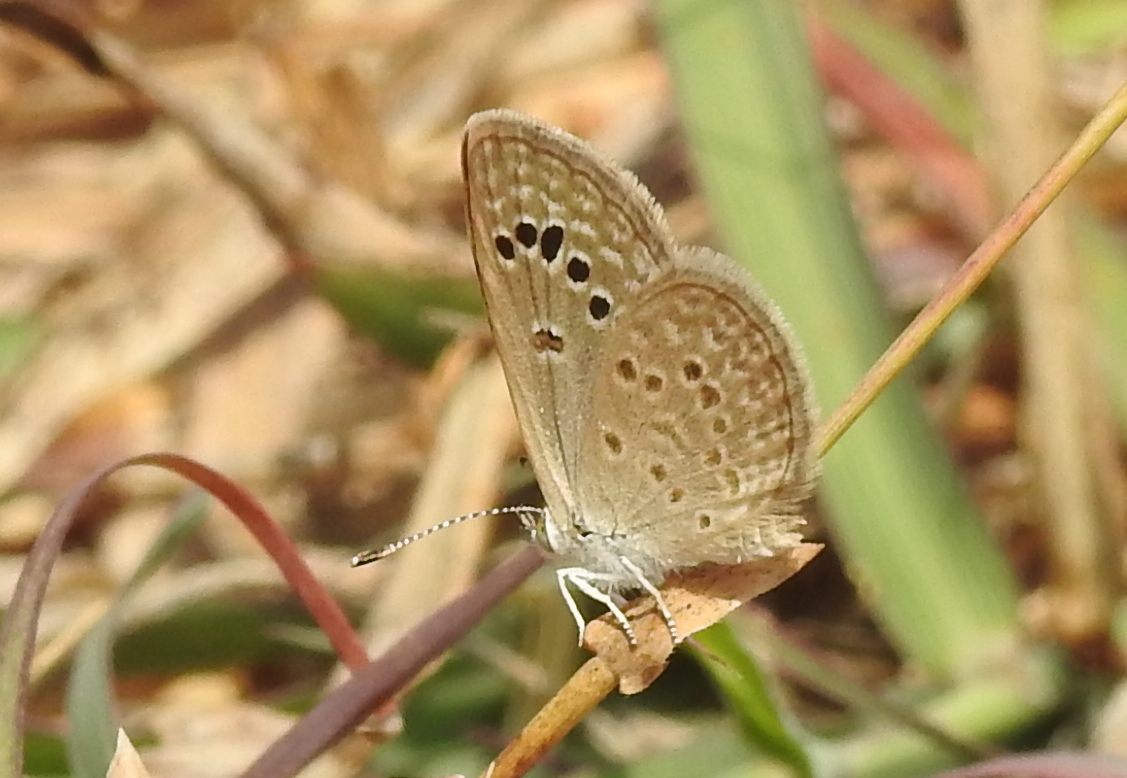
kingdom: Animalia
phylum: Arthropoda
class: Insecta
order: Lepidoptera
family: Lycaenidae
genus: Zizina
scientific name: Zizina otis
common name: Lesser grass blue
